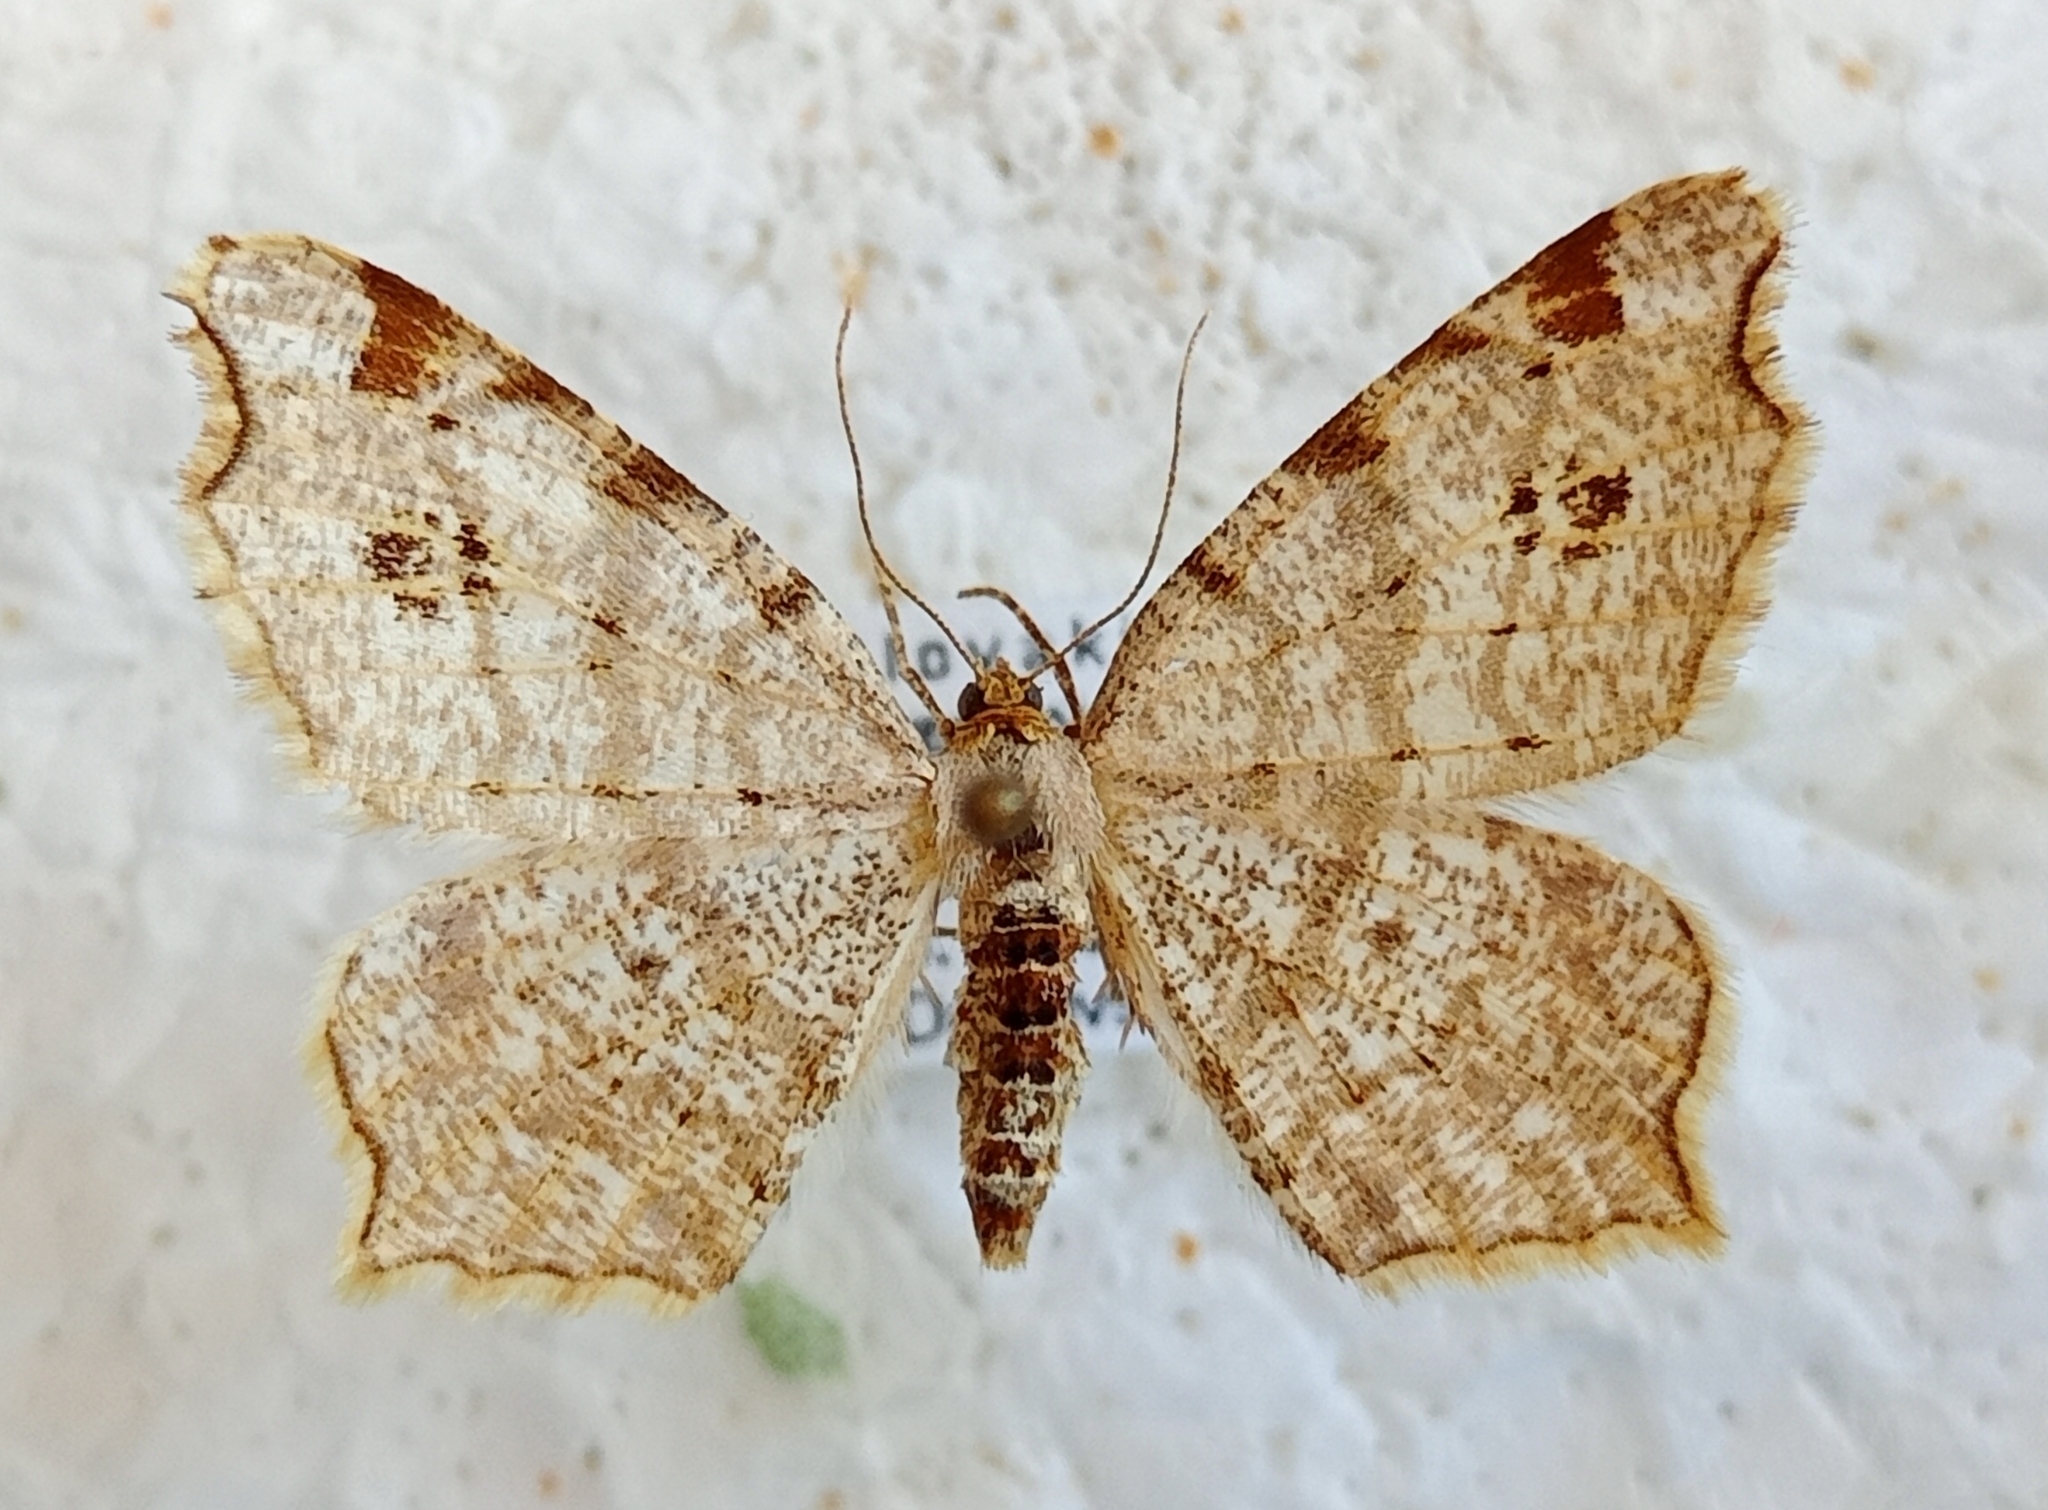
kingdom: Animalia
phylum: Arthropoda
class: Insecta
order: Lepidoptera
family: Geometridae
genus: Macaria
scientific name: Macaria notata
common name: Peacock moth
